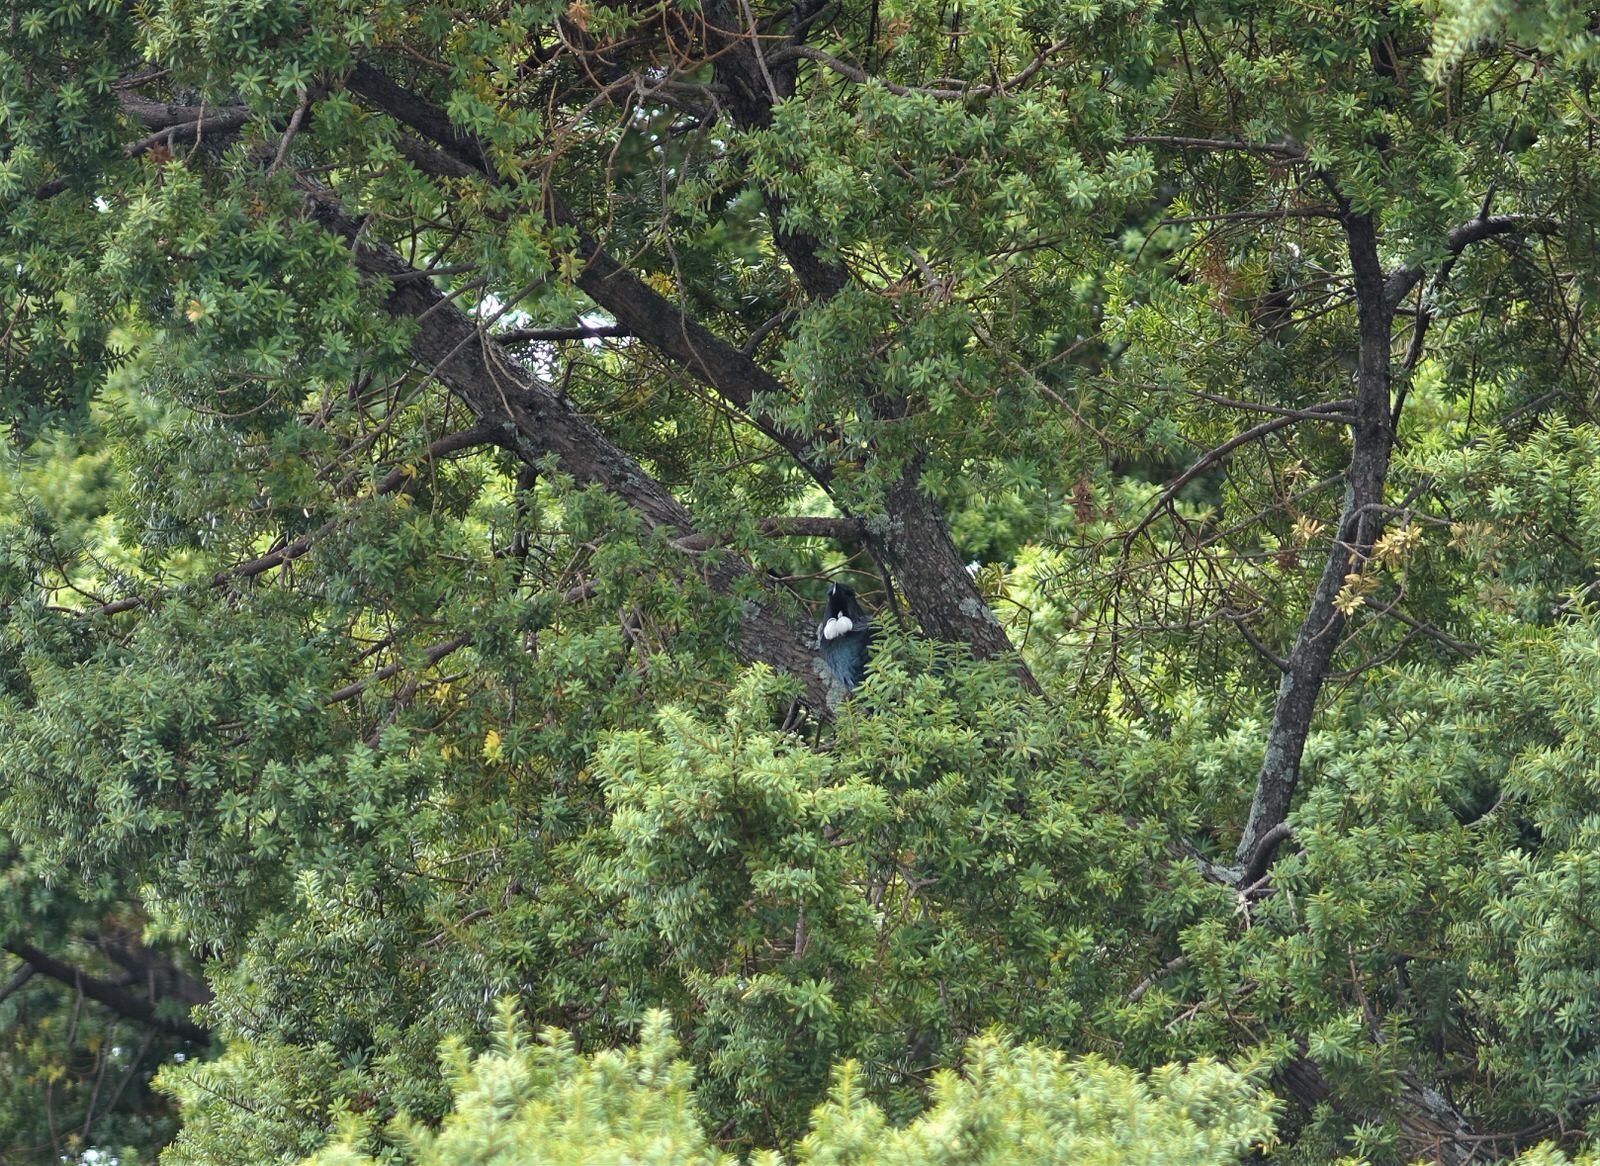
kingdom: Animalia
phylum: Chordata
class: Aves
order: Passeriformes
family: Meliphagidae
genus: Prosthemadera
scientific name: Prosthemadera novaeseelandiae
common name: Tui
